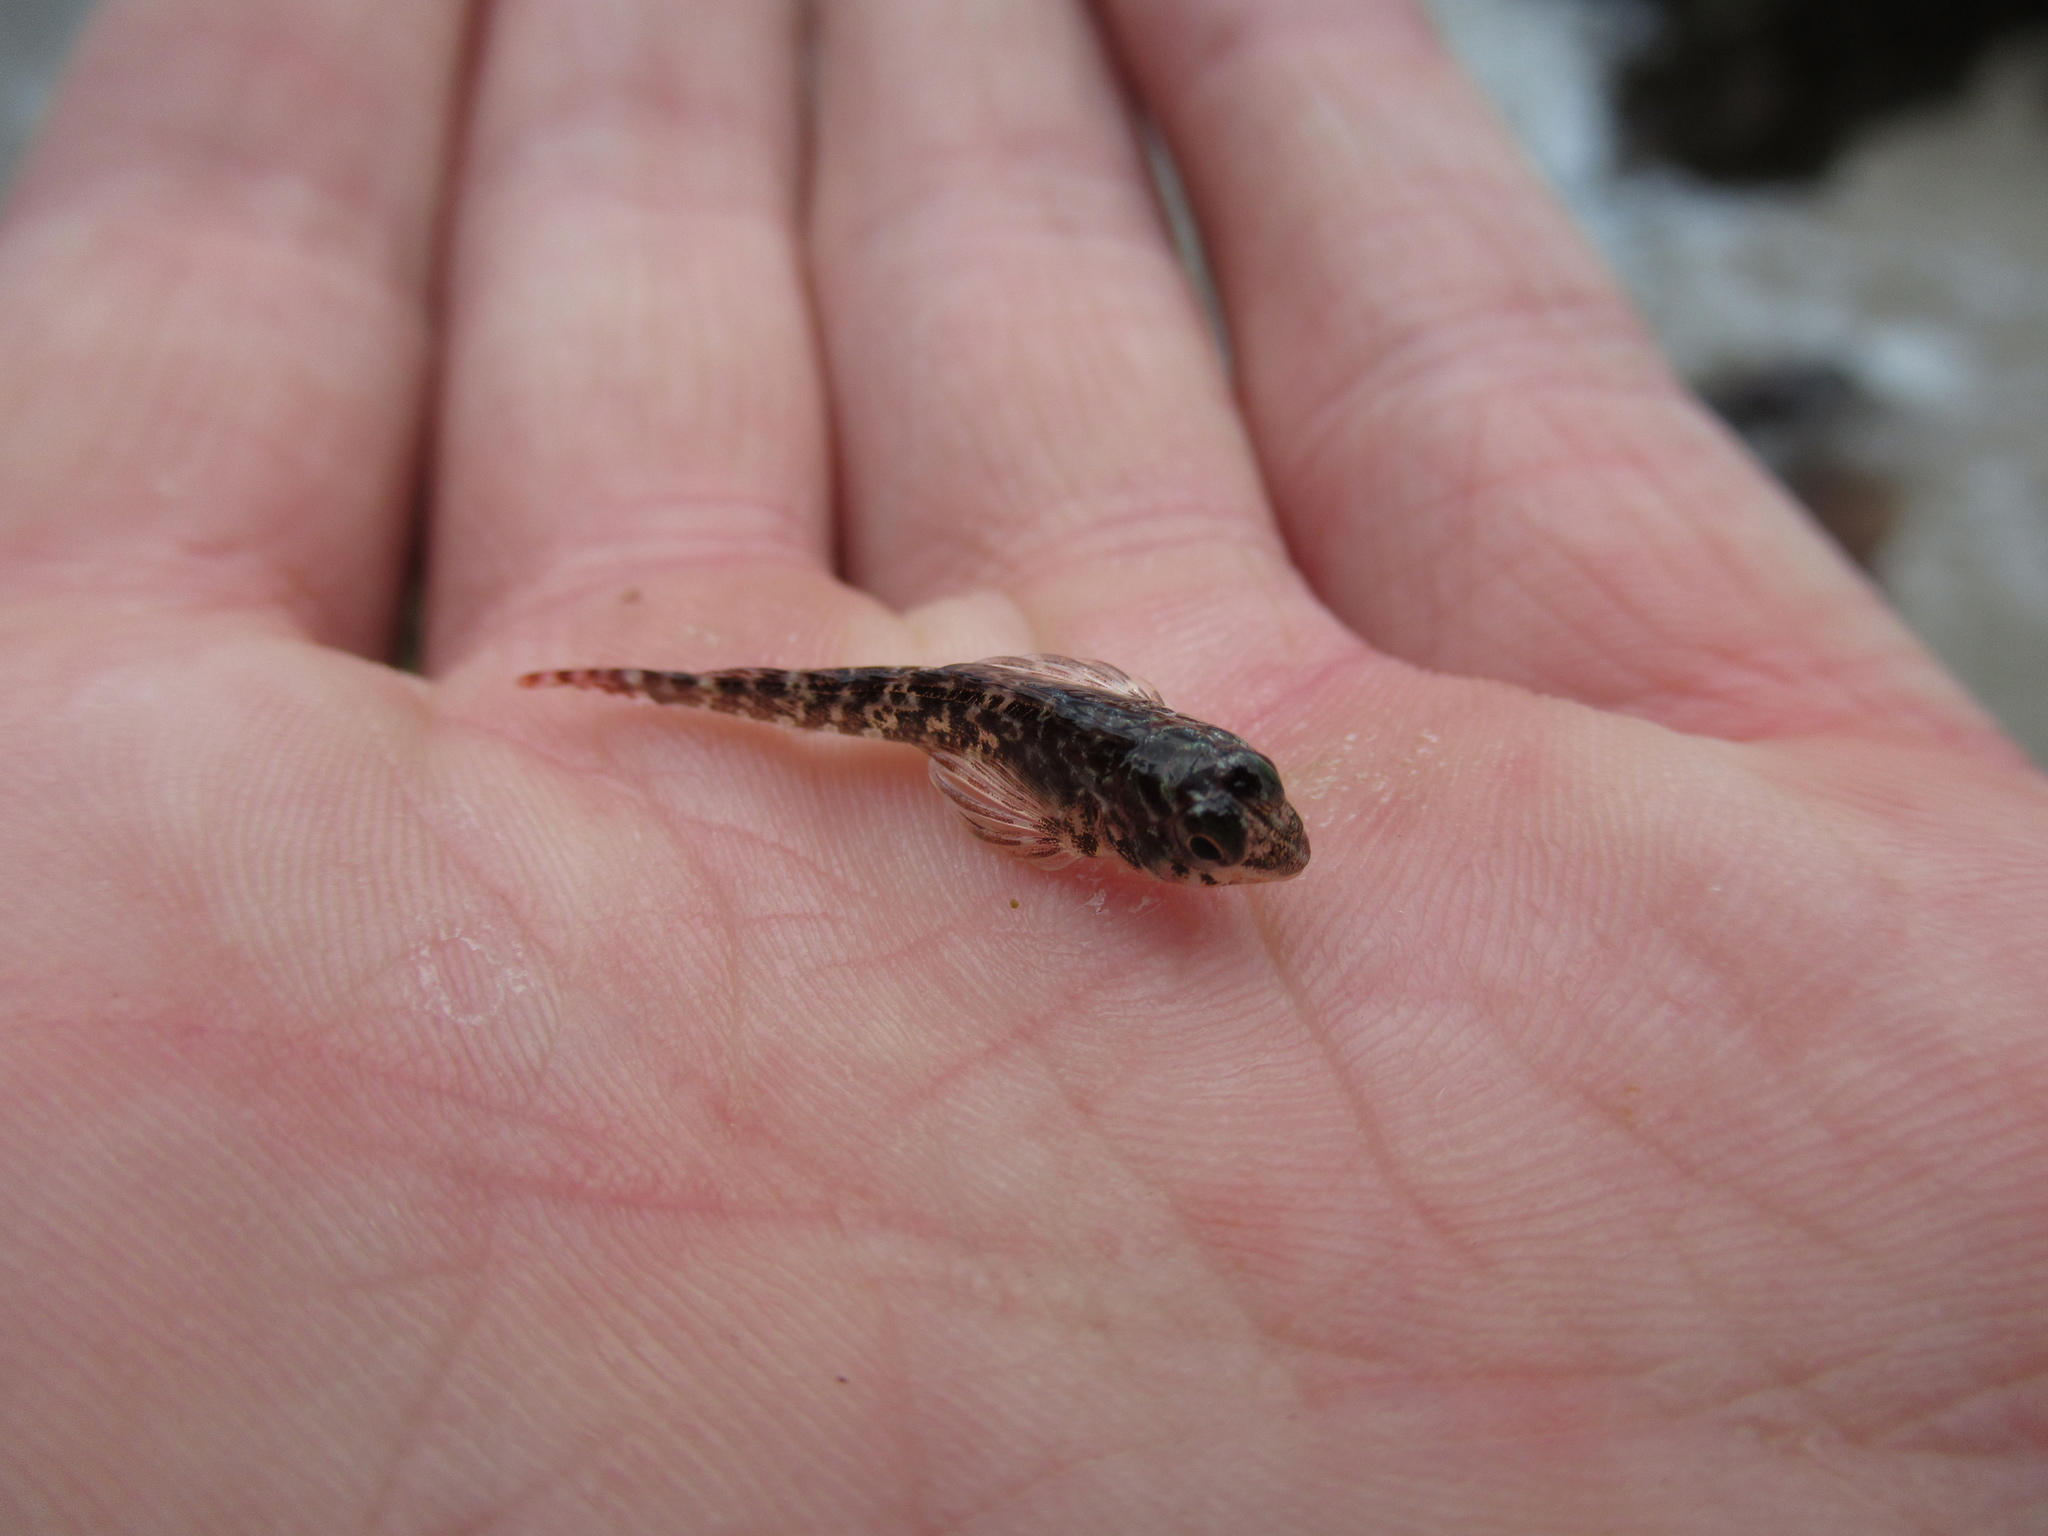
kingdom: Animalia
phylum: Chordata
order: Perciformes
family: Tripterygiidae
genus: Cryptichthys
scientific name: Cryptichthys jojettae
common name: Cryptic triplefin
